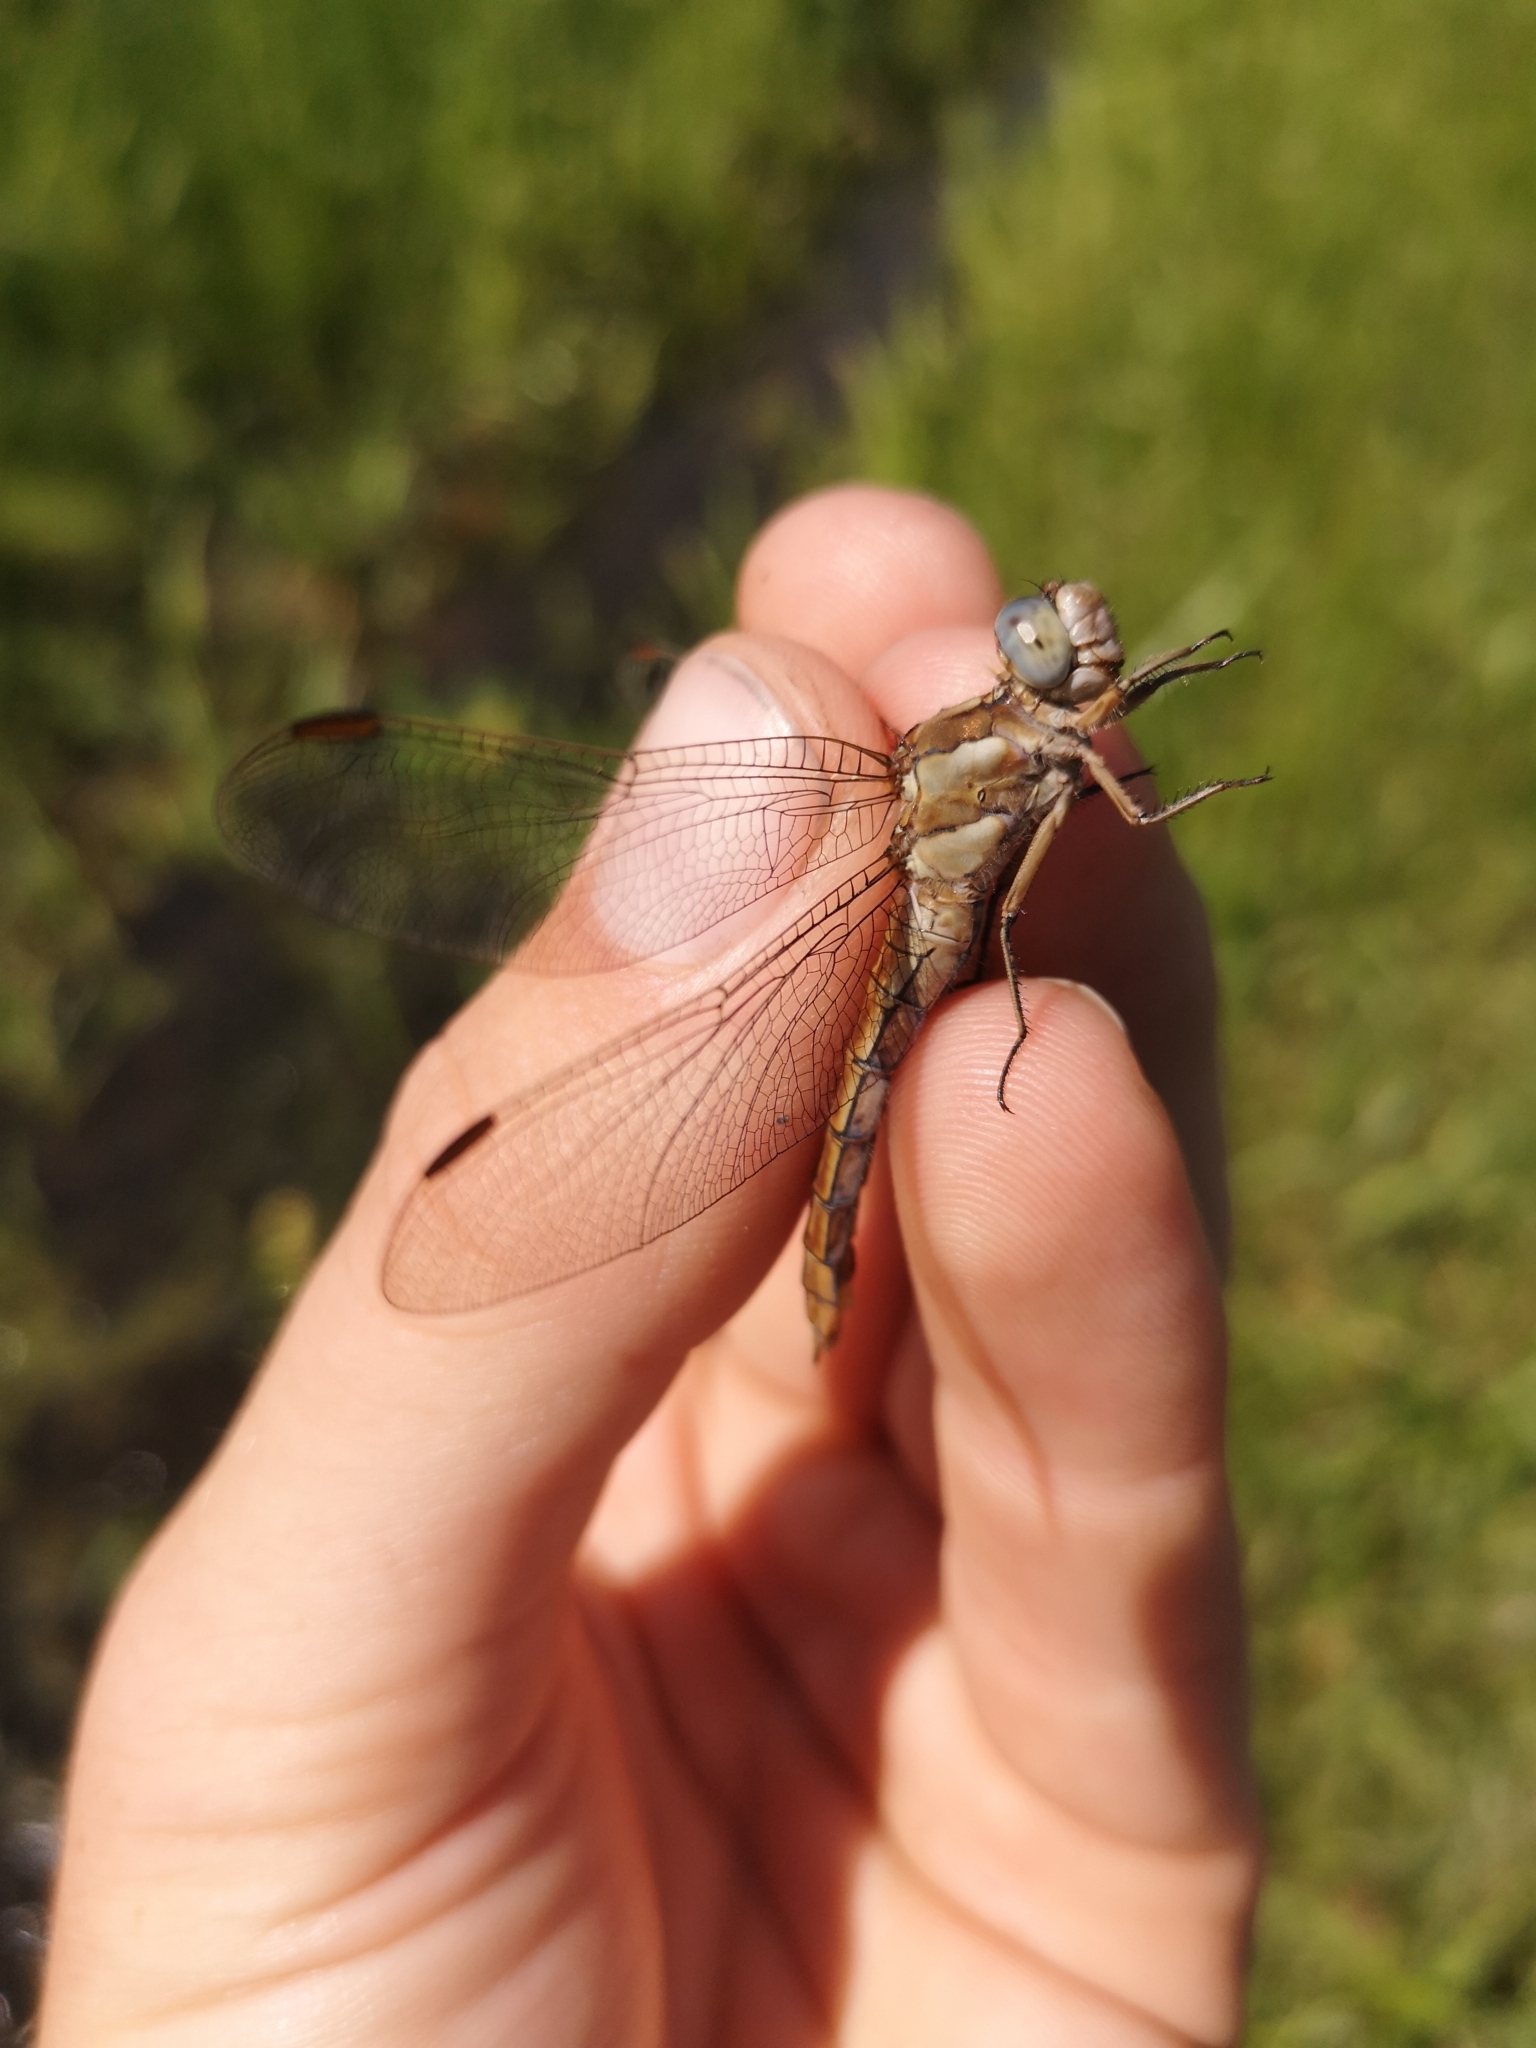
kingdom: Animalia
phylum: Arthropoda
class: Insecta
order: Odonata
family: Libellulidae
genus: Orthetrum
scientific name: Orthetrum brunneum
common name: Southern skimmer
